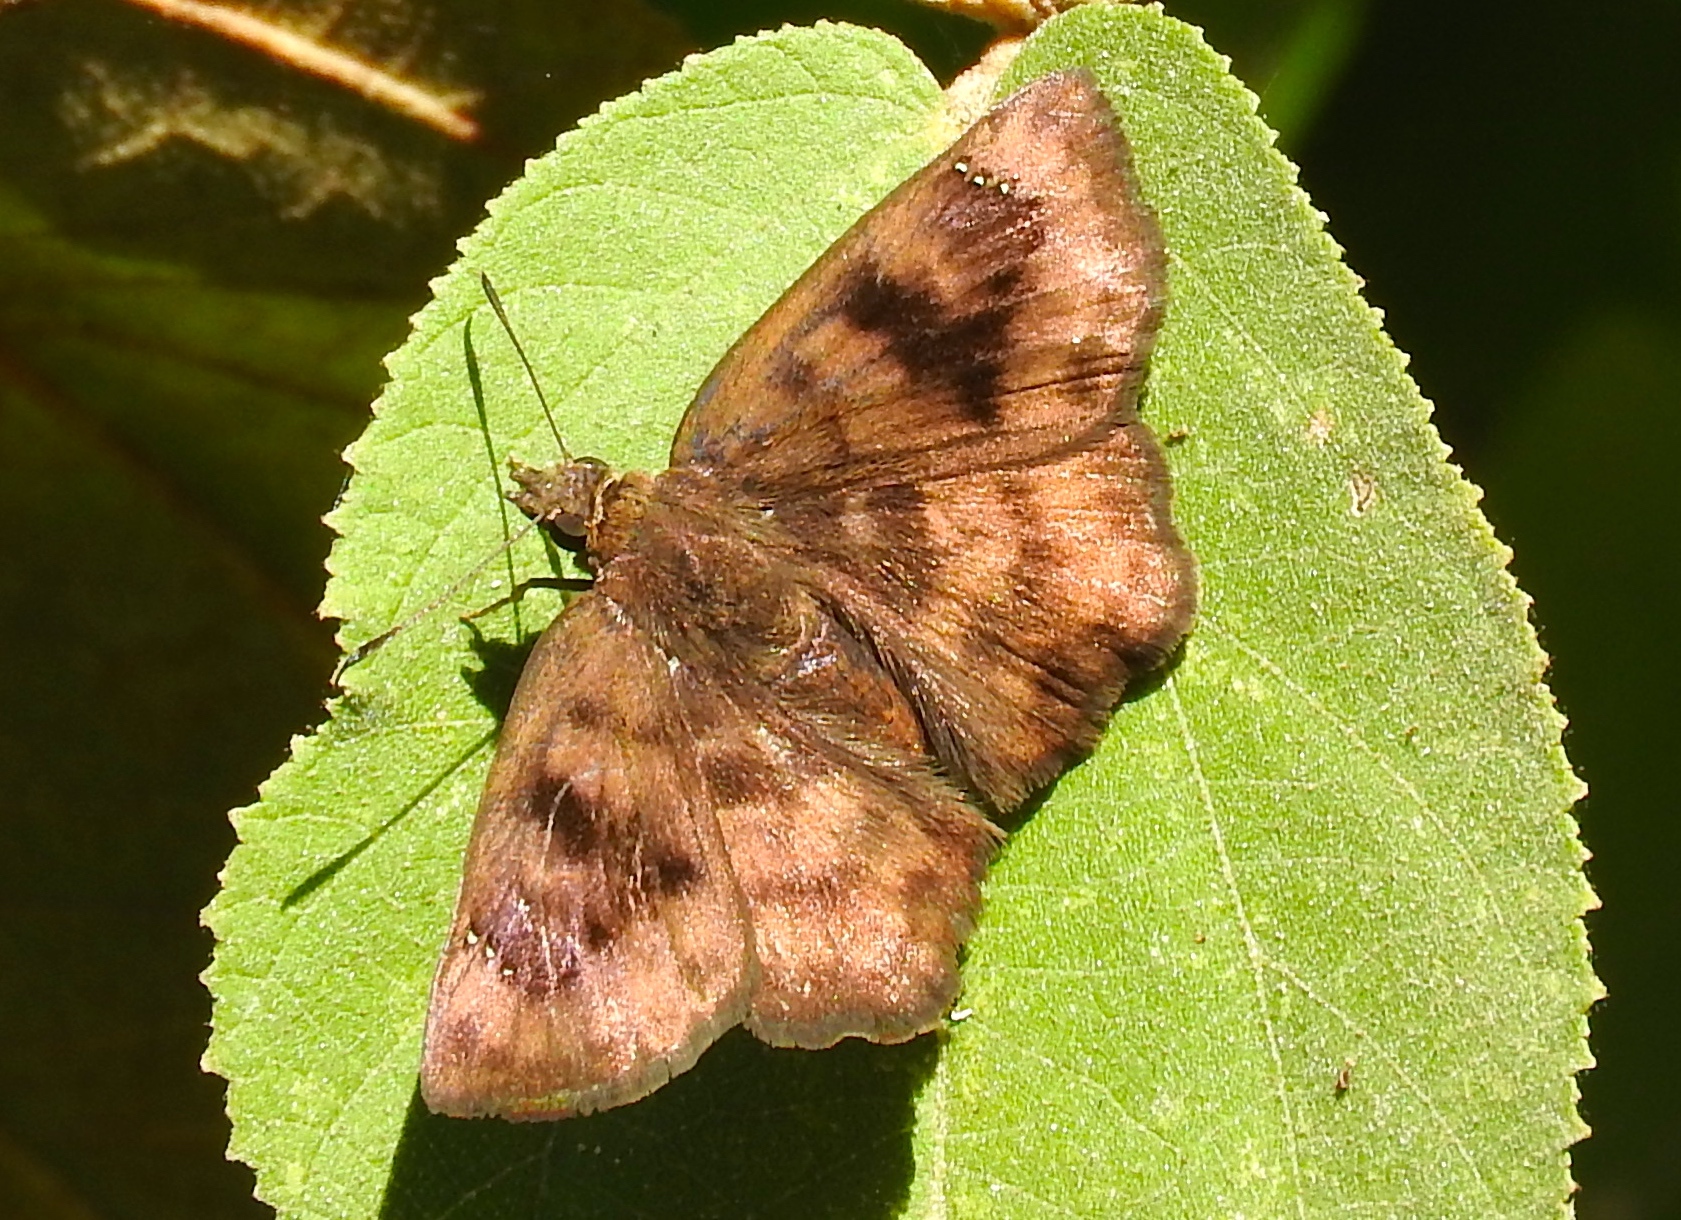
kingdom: Animalia
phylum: Arthropoda
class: Insecta
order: Lepidoptera
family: Hesperiidae
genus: Nisoniades
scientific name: Nisoniades
